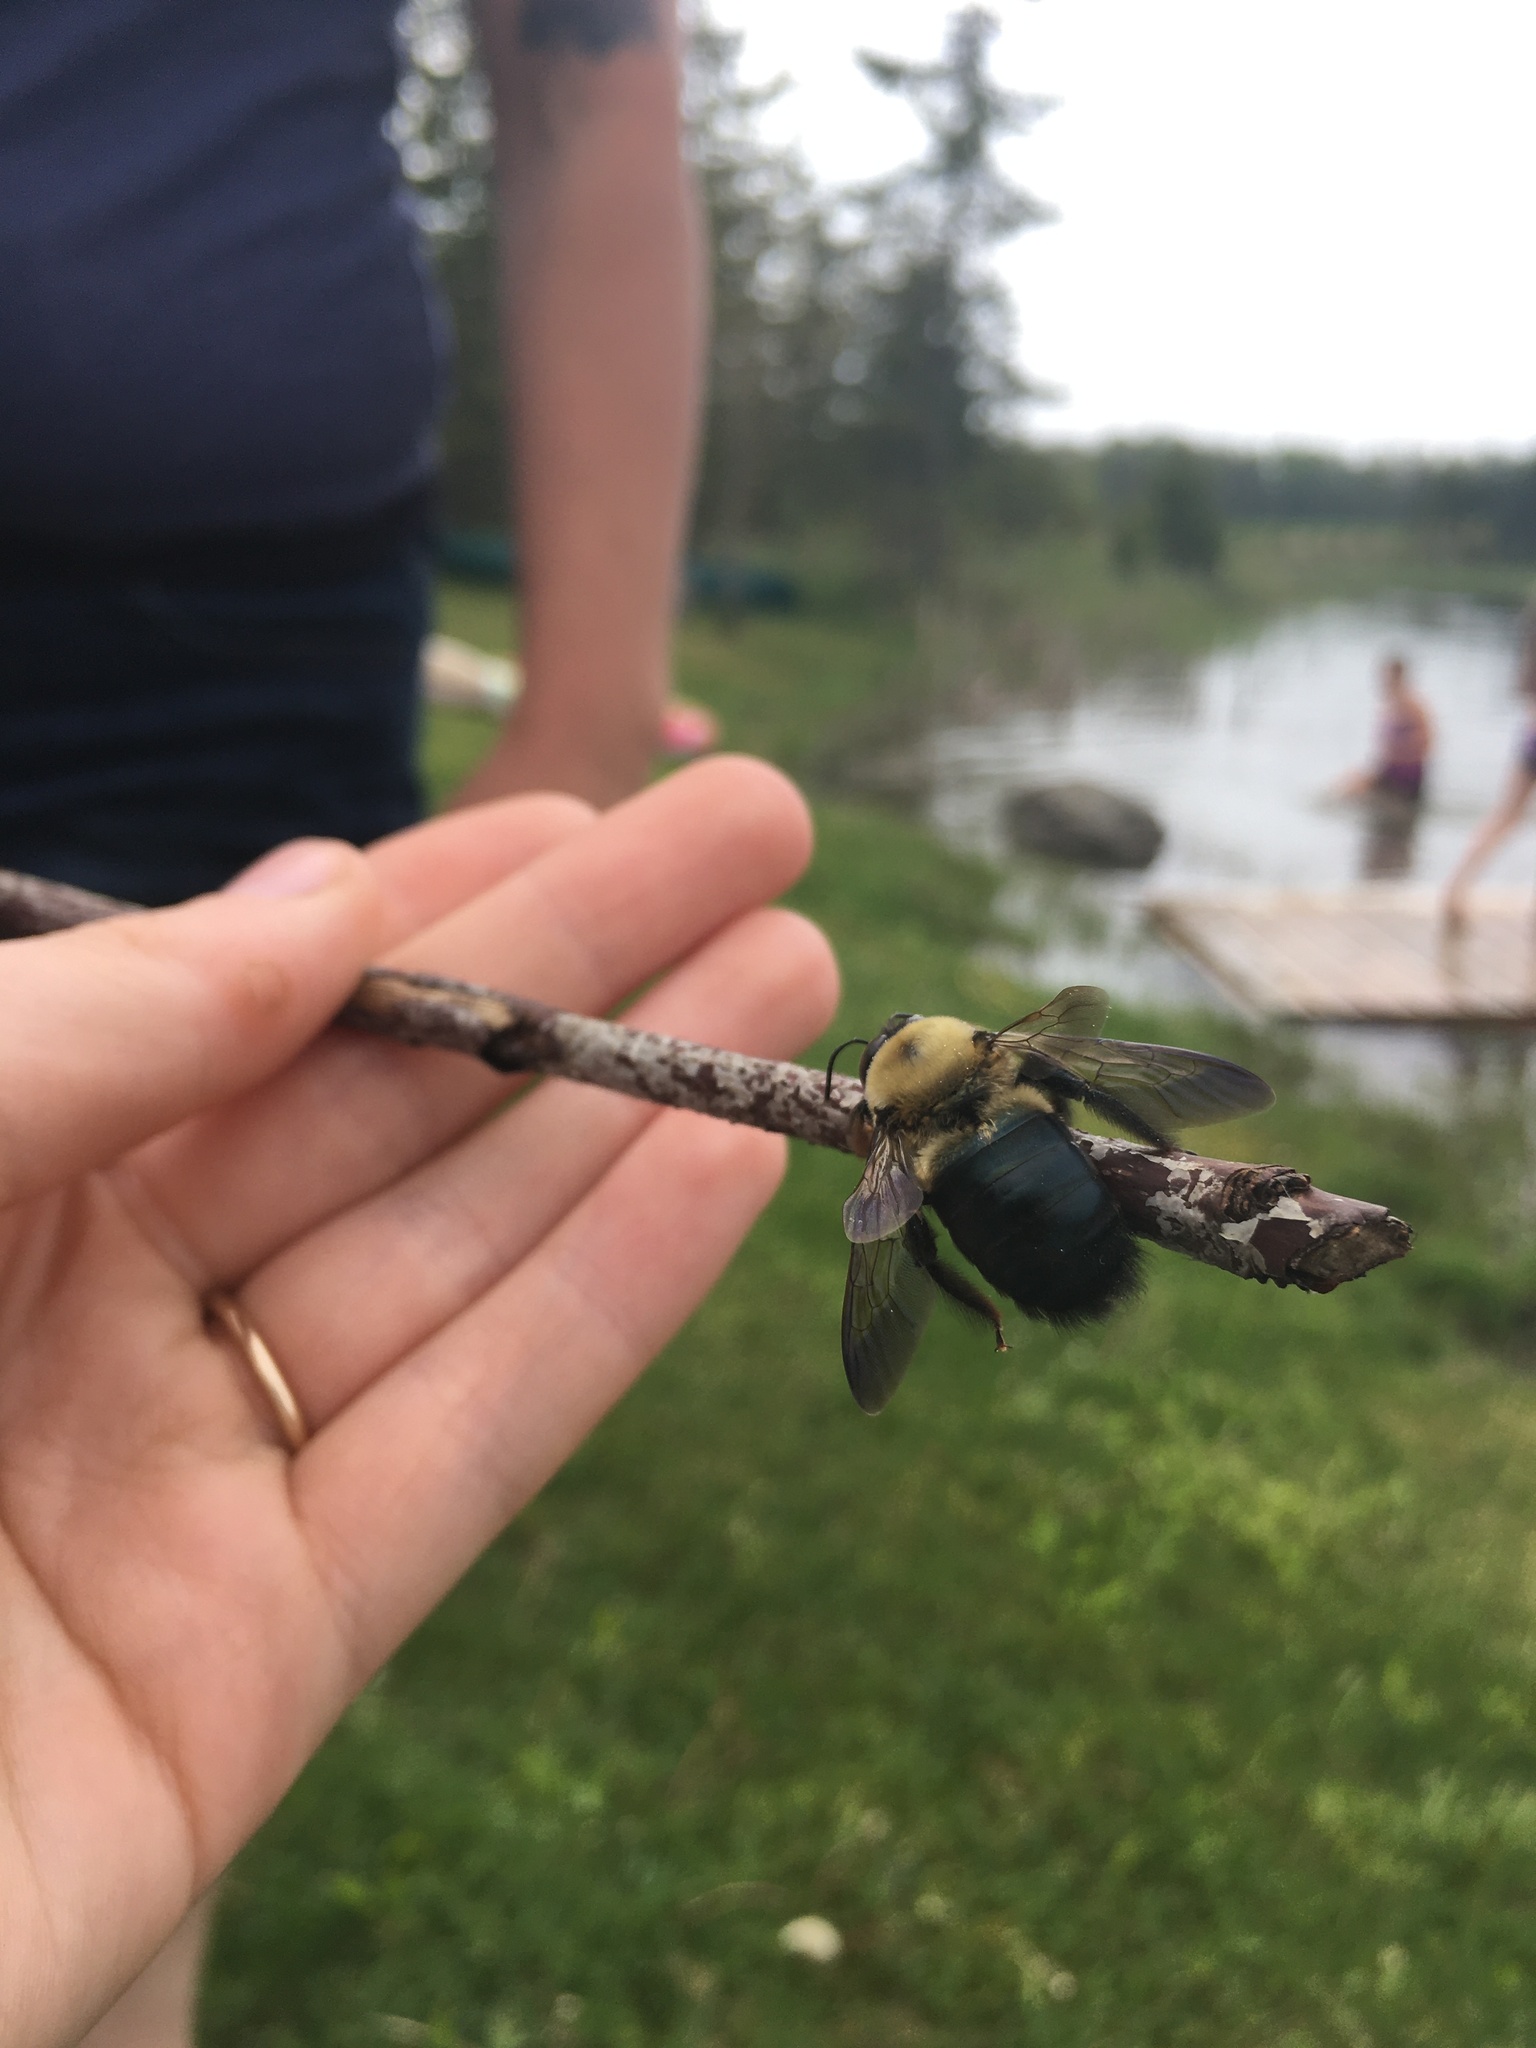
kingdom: Animalia
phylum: Arthropoda
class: Insecta
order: Hymenoptera
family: Apidae
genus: Xylocopa
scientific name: Xylocopa virginica
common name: Carpenter bee
